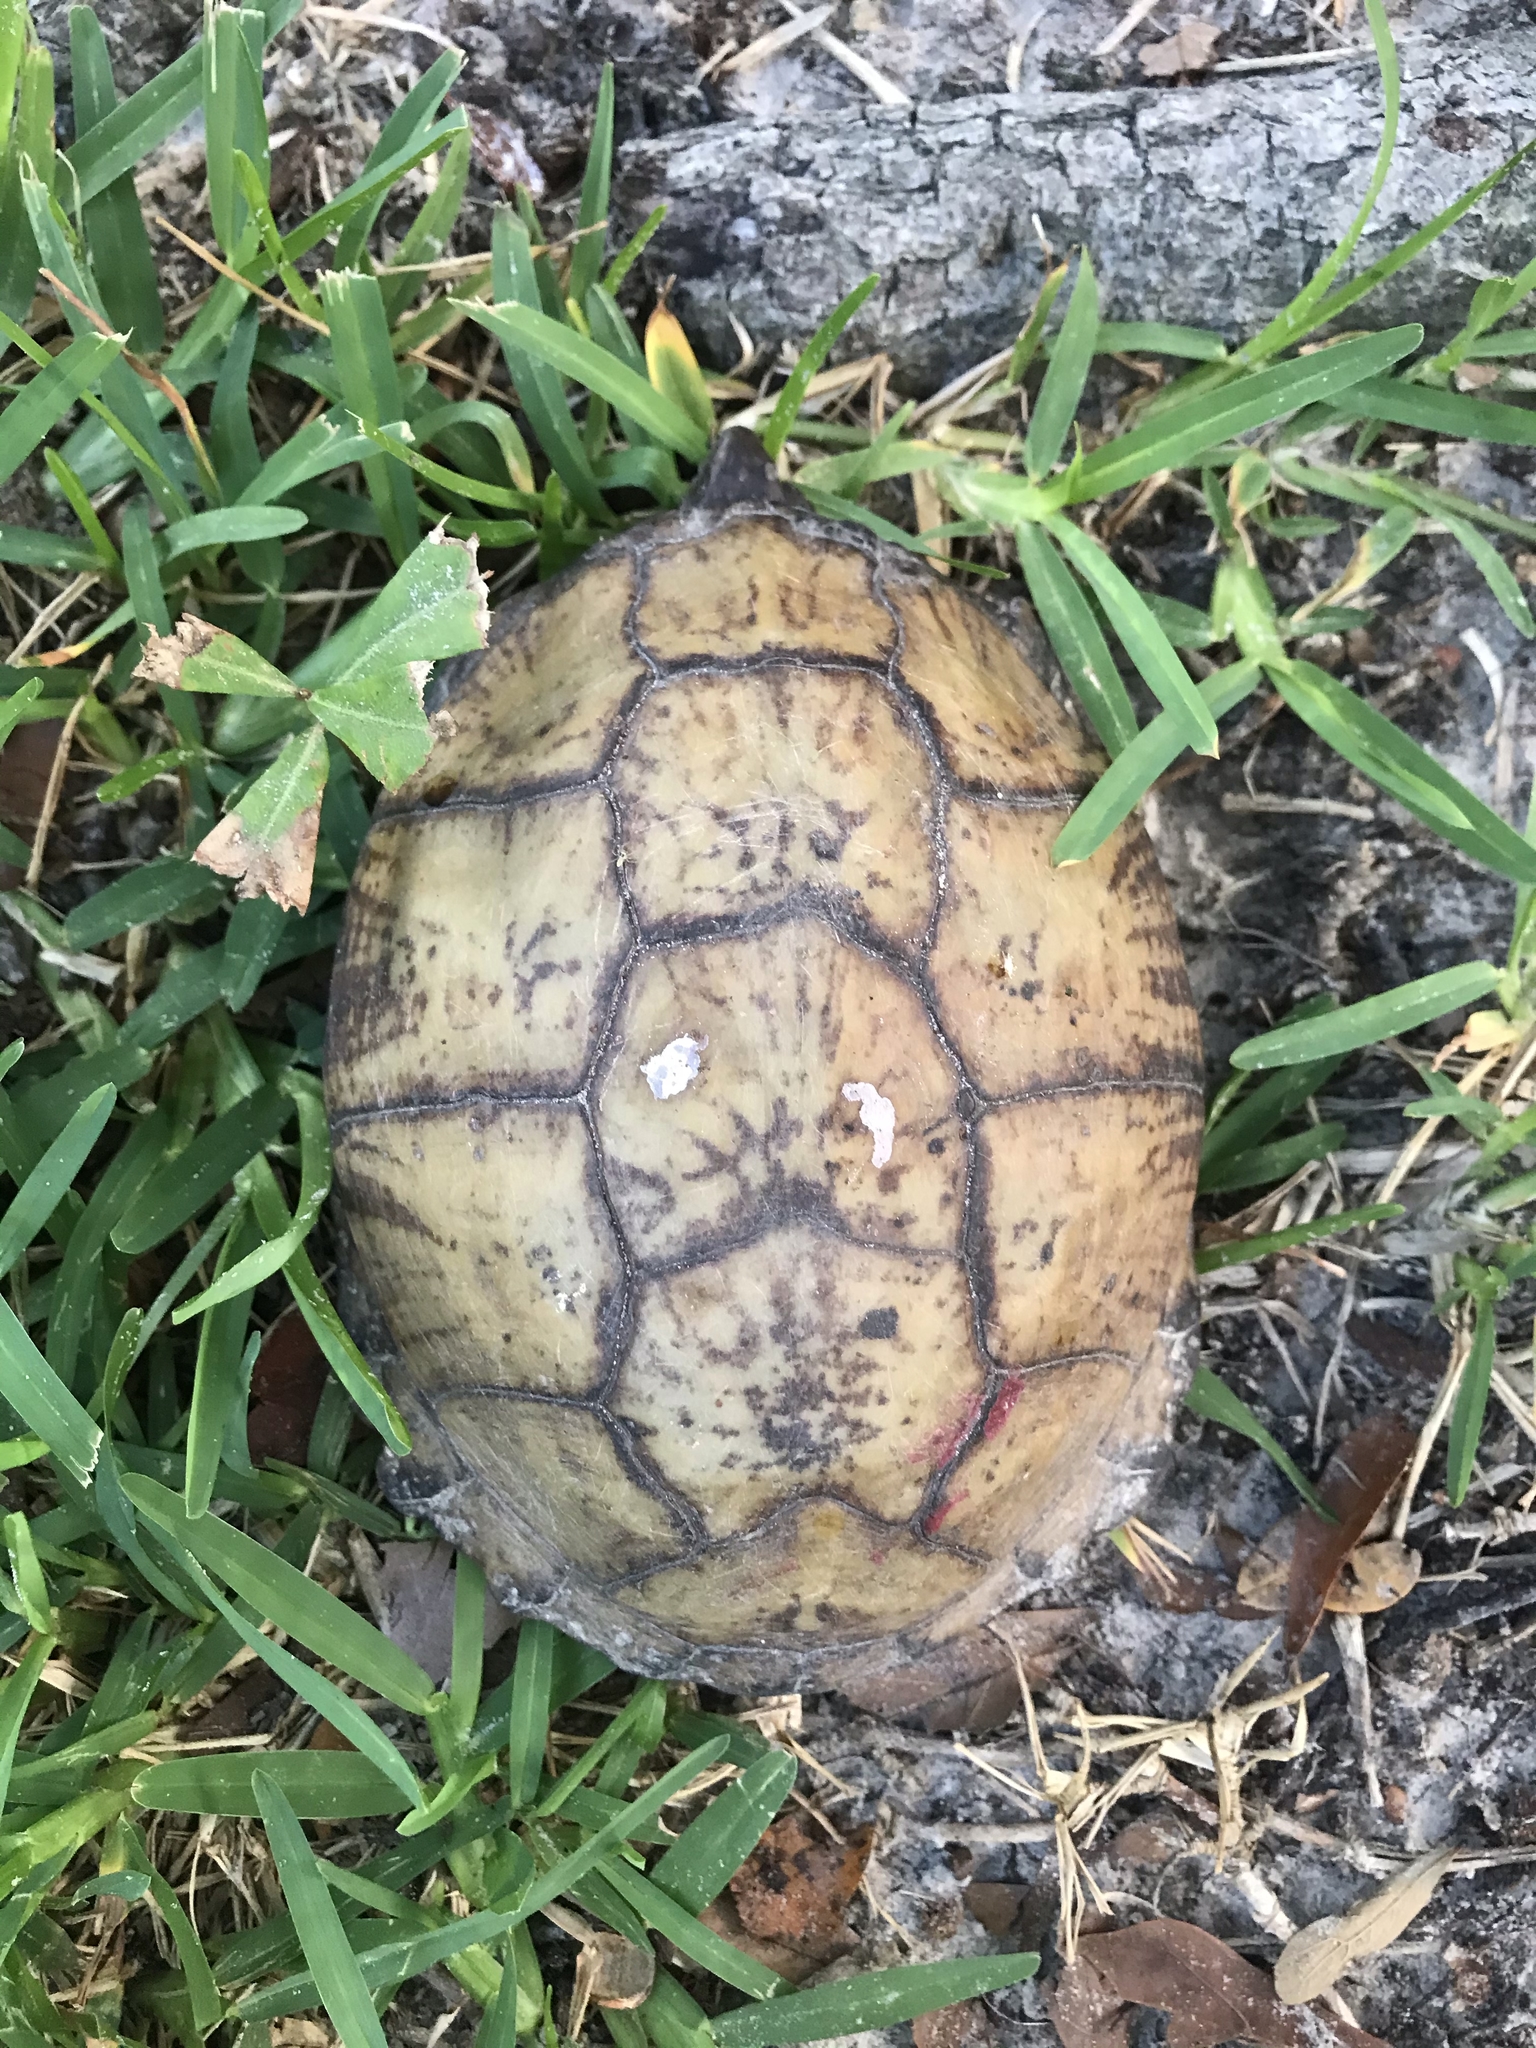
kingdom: Animalia
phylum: Chordata
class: Testudines
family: Emydidae
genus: Terrapene
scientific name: Terrapene carolina
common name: Common box turtle
